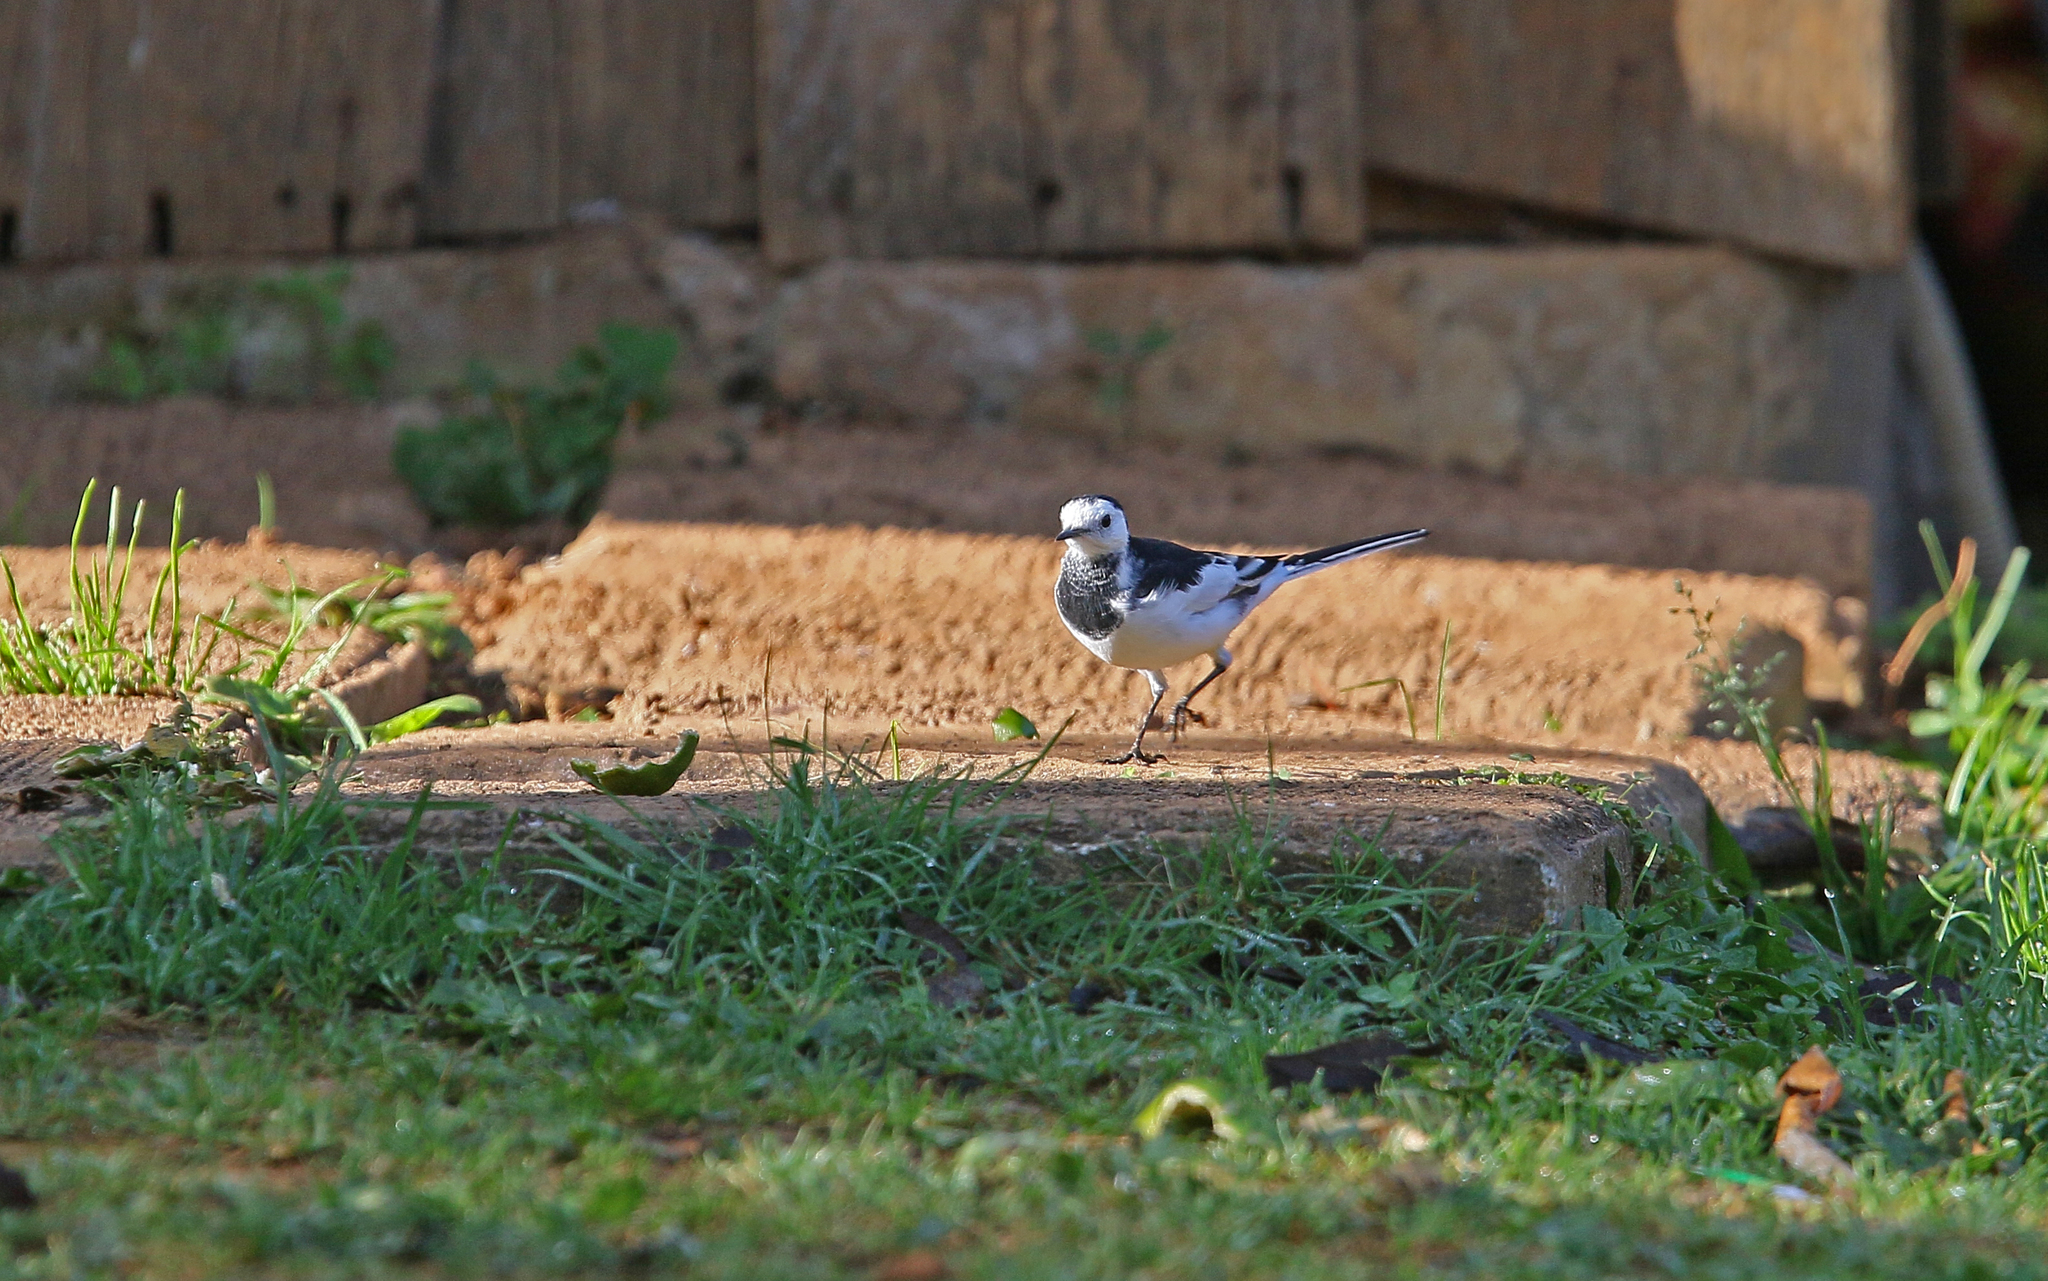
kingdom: Animalia
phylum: Chordata
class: Aves
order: Passeriformes
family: Motacillidae
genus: Motacilla
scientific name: Motacilla alba
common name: White wagtail
